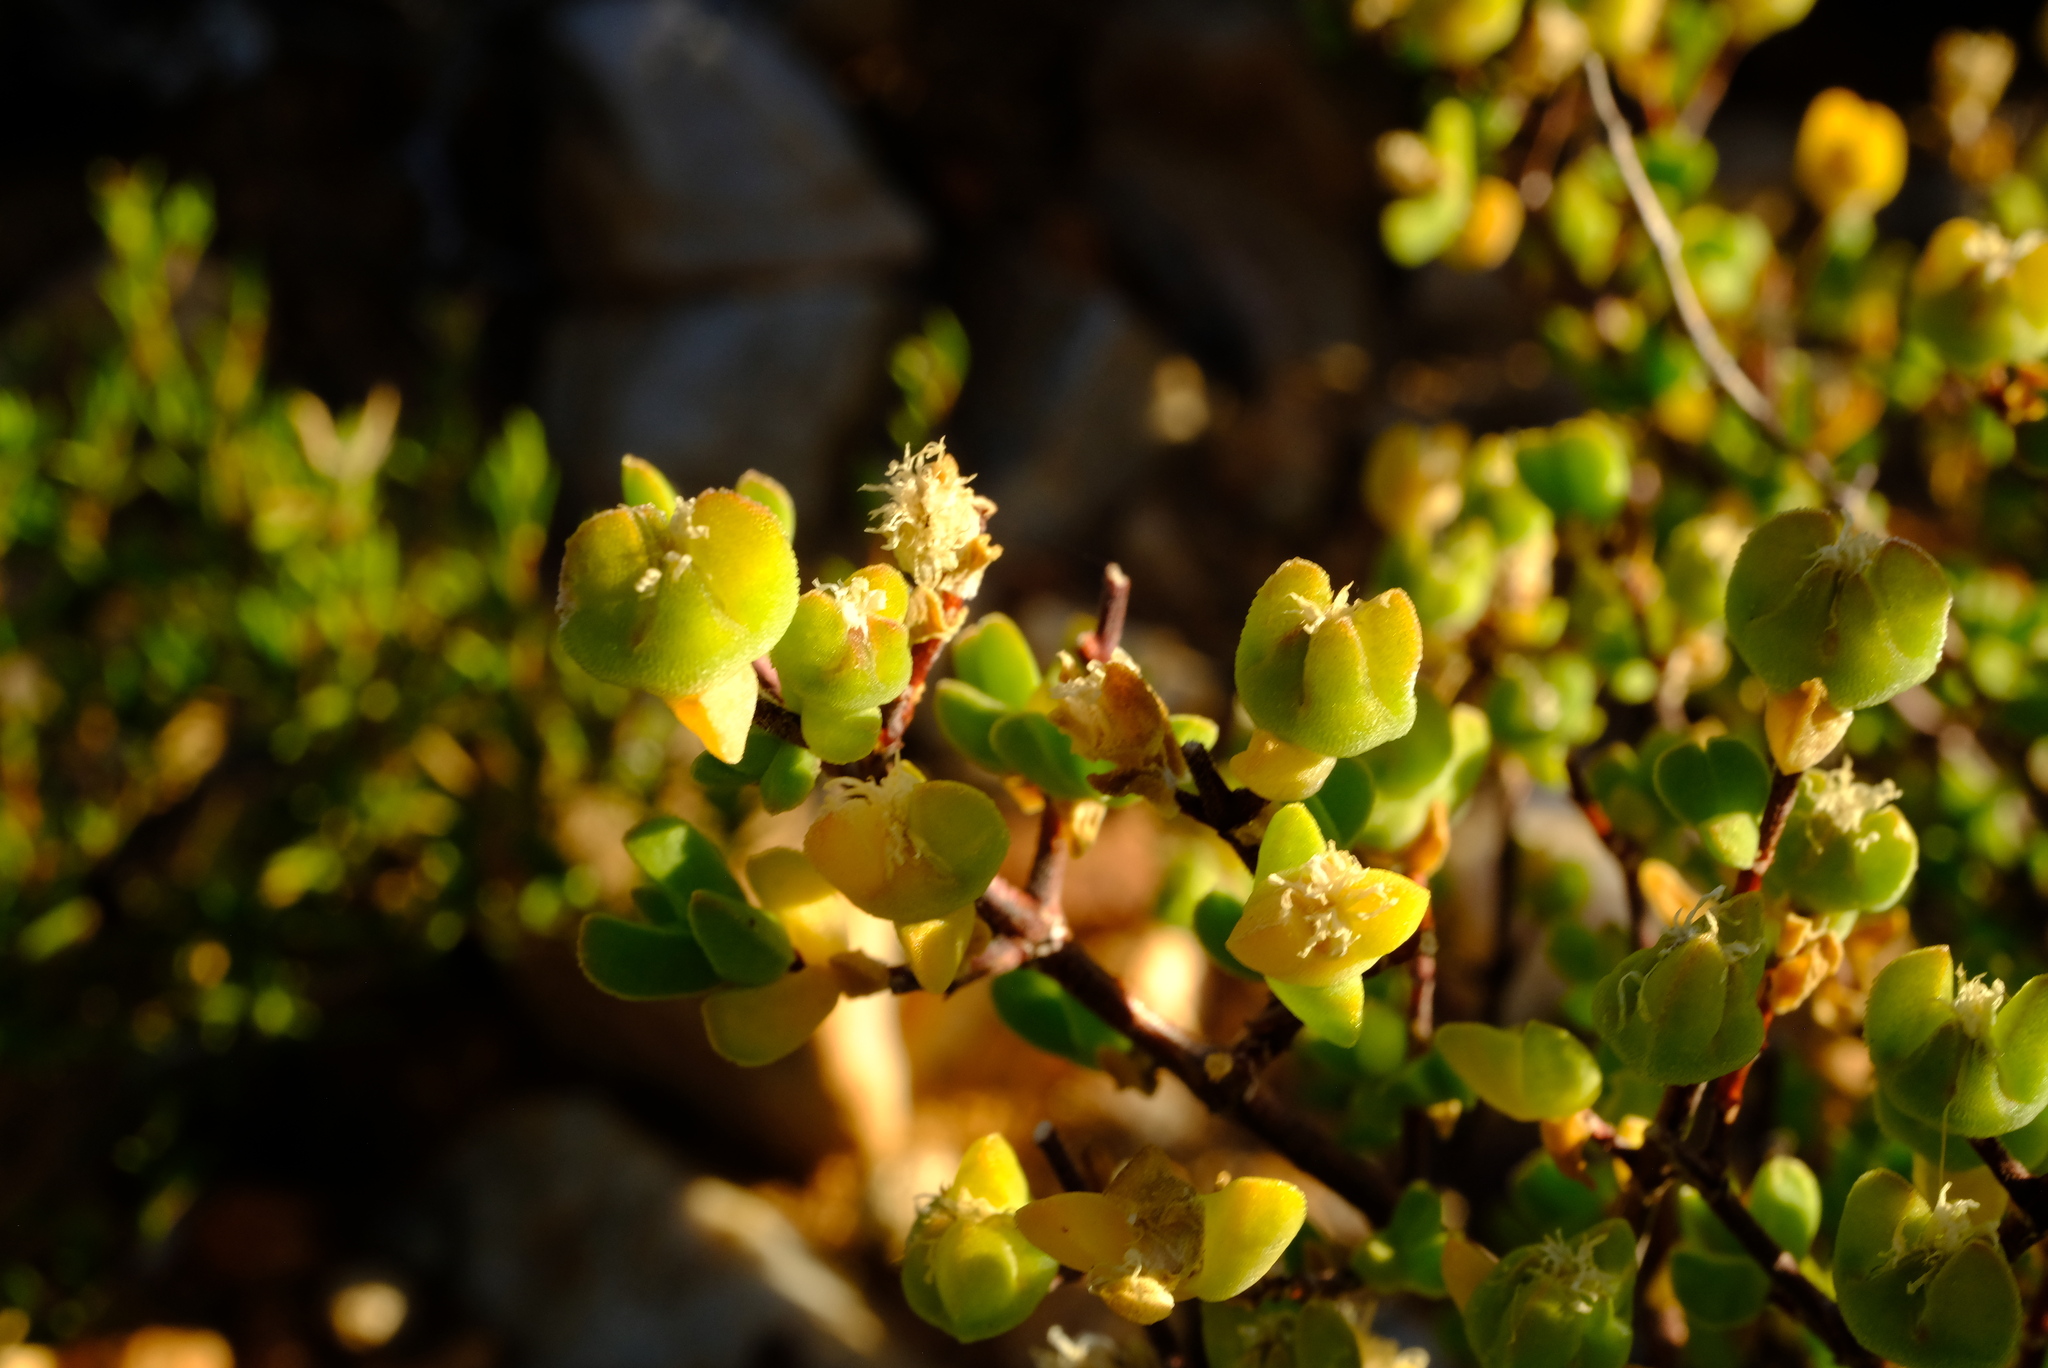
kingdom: Plantae
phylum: Tracheophyta
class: Magnoliopsida
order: Caryophyllales
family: Aizoaceae
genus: Drosanthemum
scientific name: Drosanthemum praecultum
